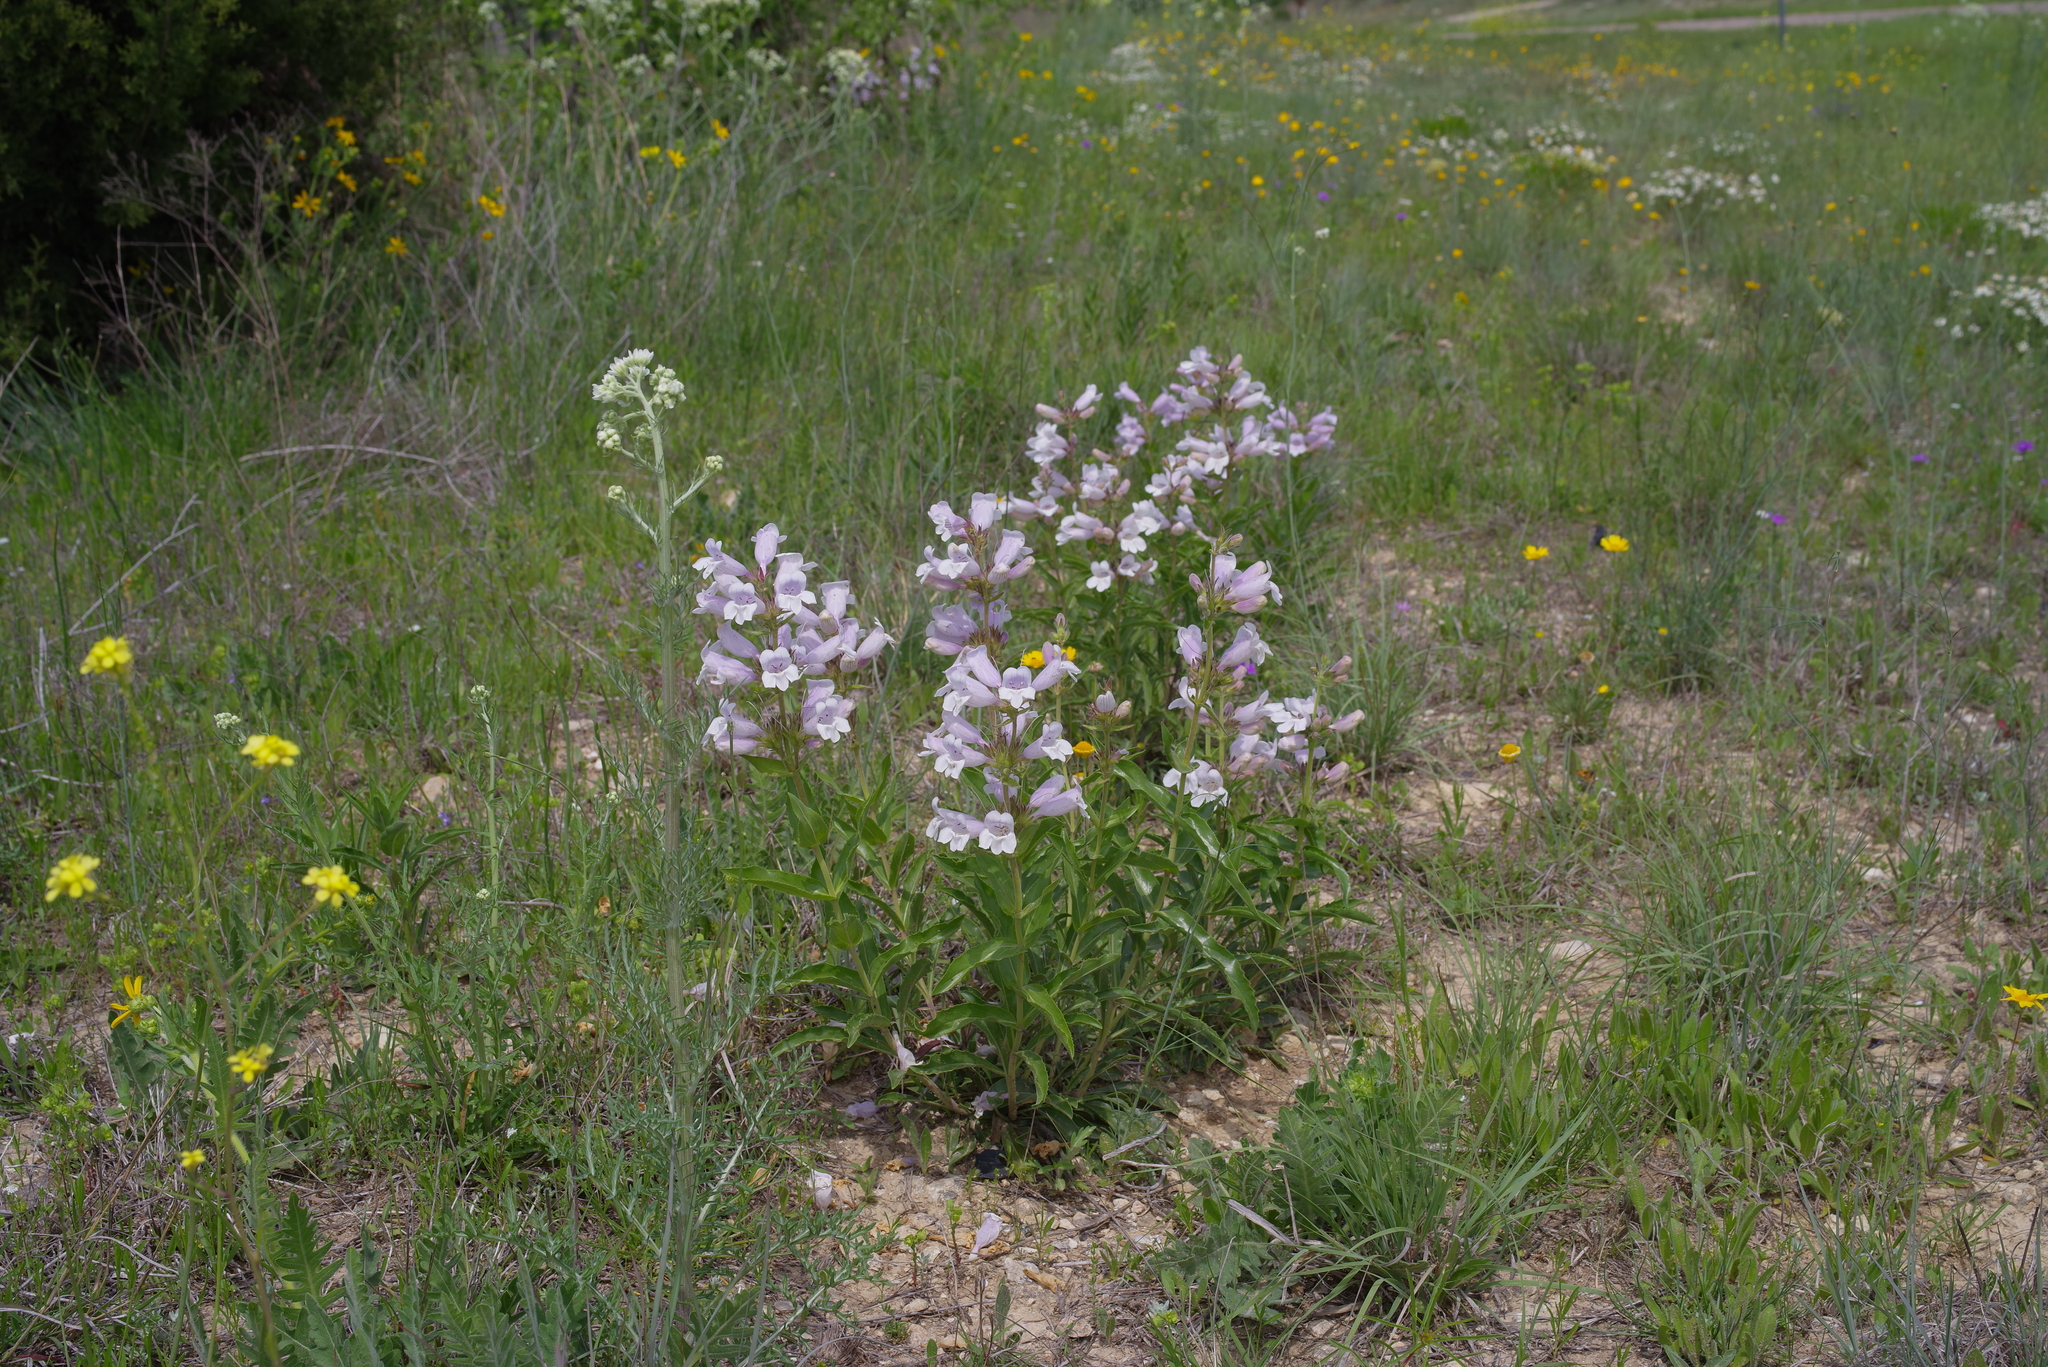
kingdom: Plantae
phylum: Tracheophyta
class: Magnoliopsida
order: Lamiales
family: Plantaginaceae
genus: Penstemon
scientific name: Penstemon cobaea
